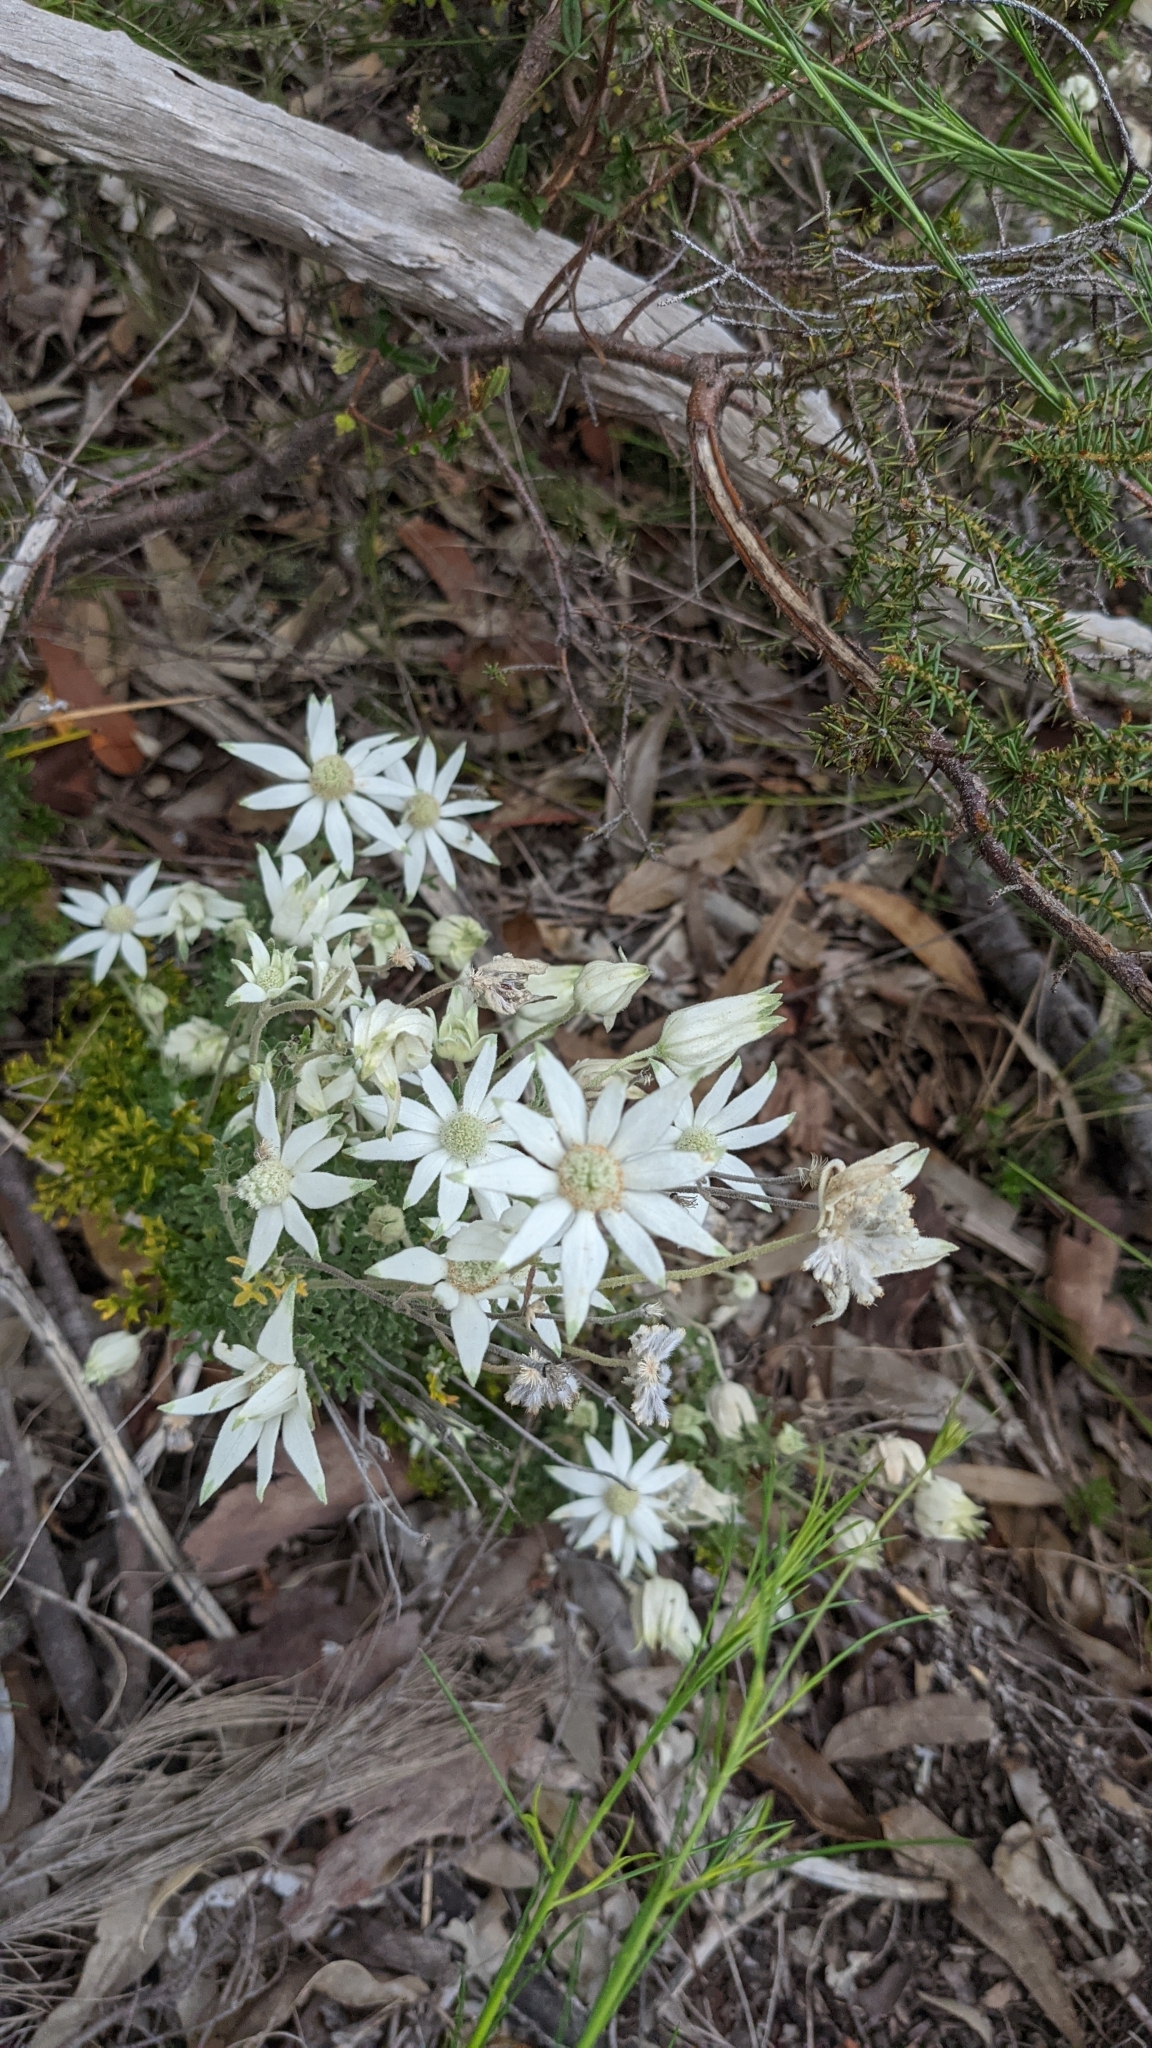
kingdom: Plantae
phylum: Tracheophyta
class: Magnoliopsida
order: Apiales
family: Apiaceae
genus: Actinotus
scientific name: Actinotus helianthi
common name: Flannel-flower
